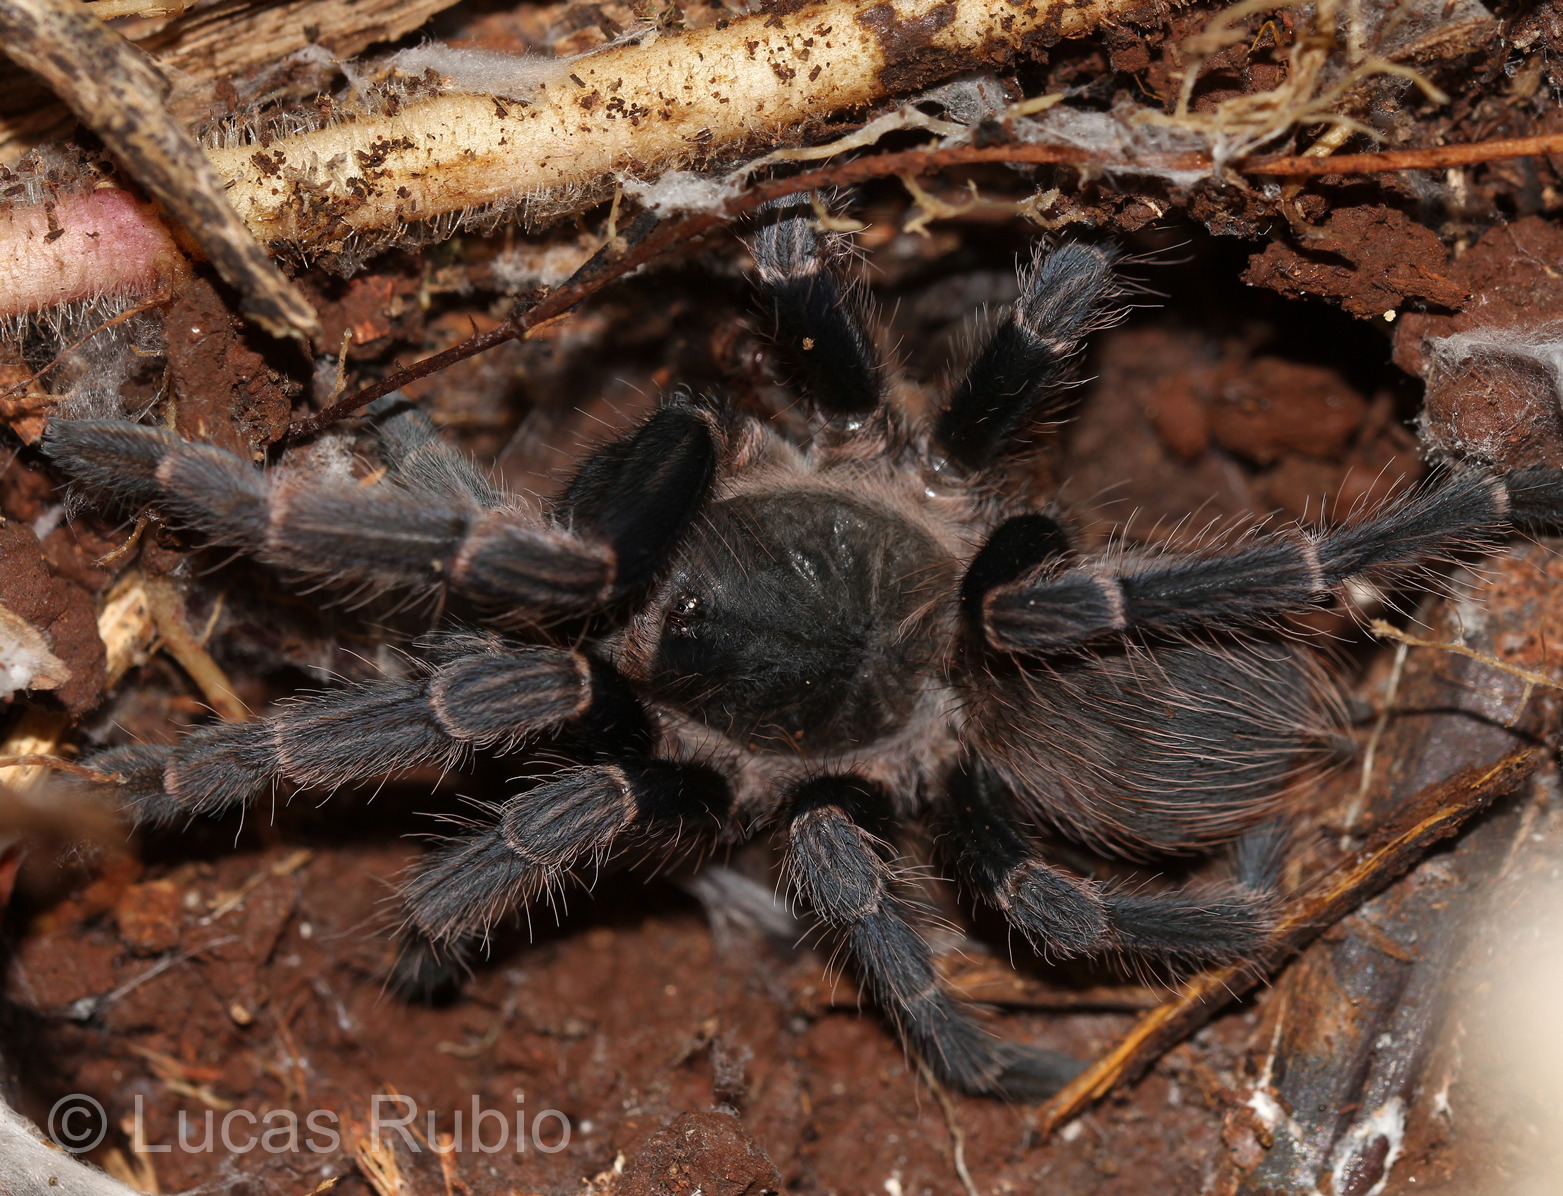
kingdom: Animalia
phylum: Arthropoda
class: Arachnida
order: Araneae
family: Theraphosidae
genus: Vitalius
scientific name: Vitalius roseus
